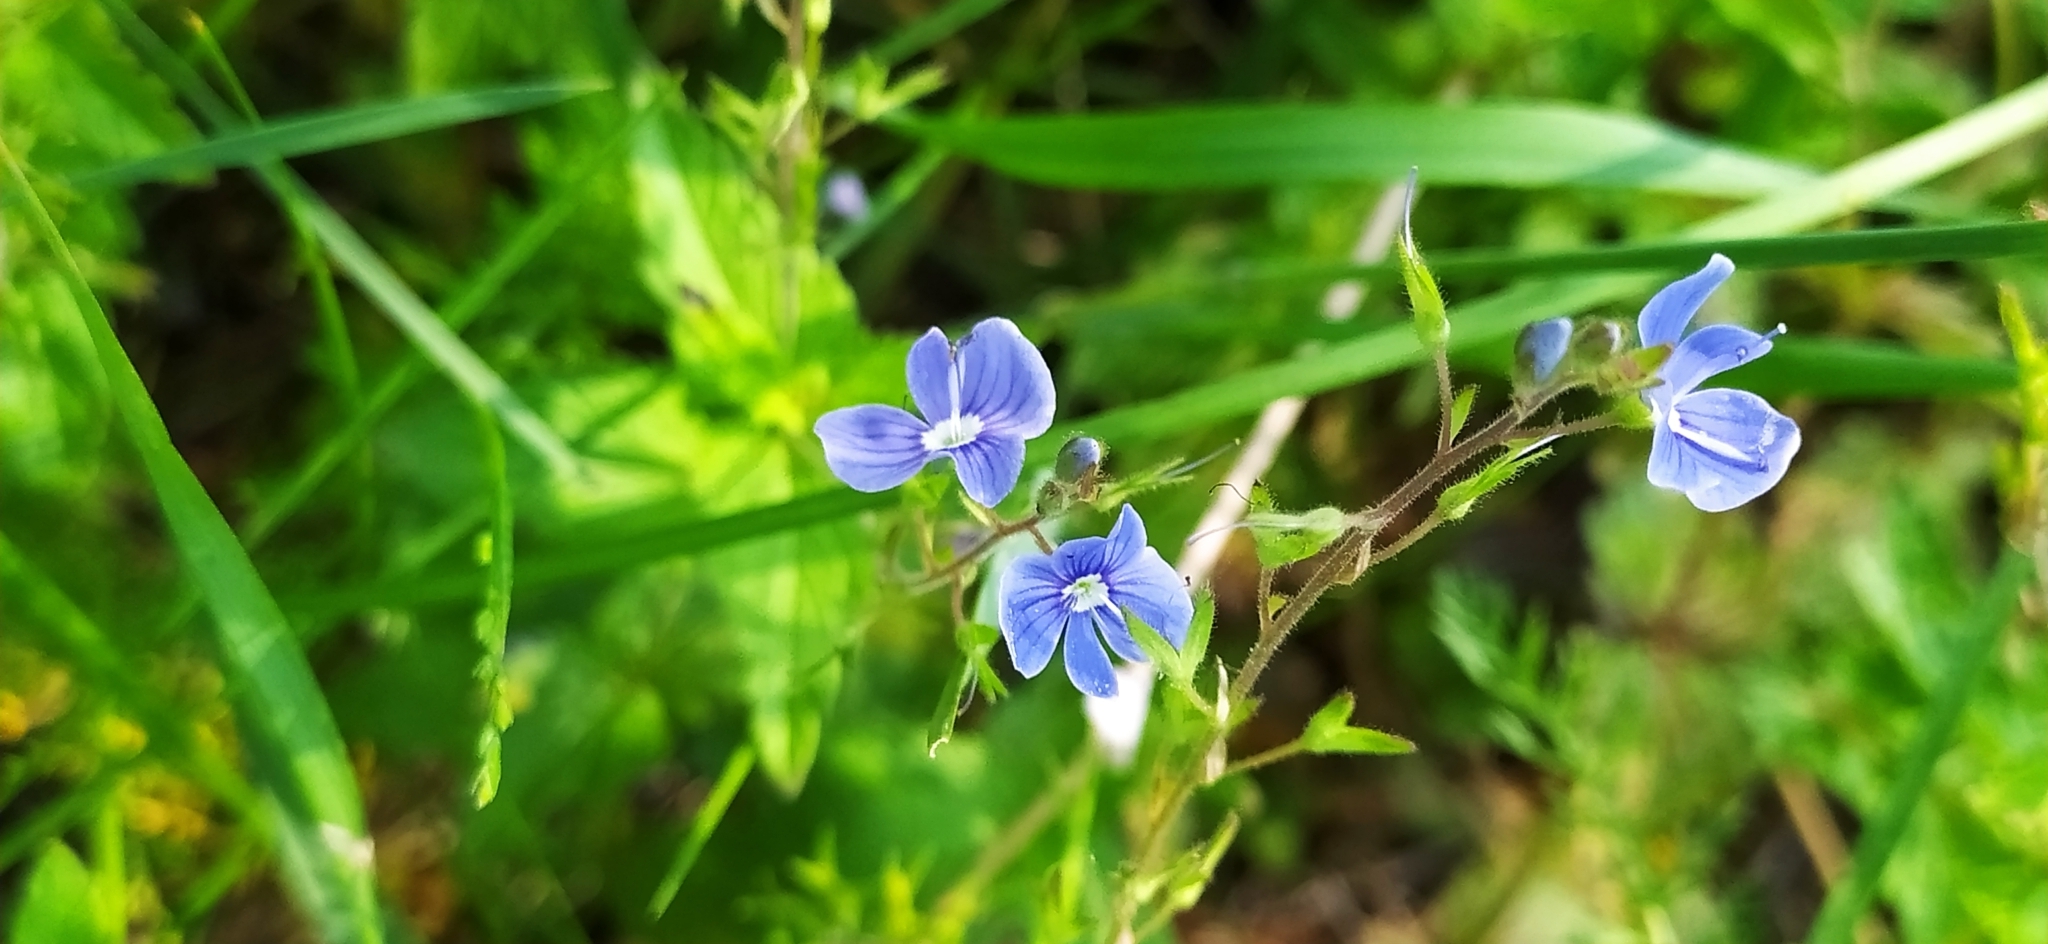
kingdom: Plantae
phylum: Tracheophyta
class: Magnoliopsida
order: Lamiales
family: Plantaginaceae
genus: Veronica
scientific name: Veronica chamaedrys
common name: Germander speedwell
